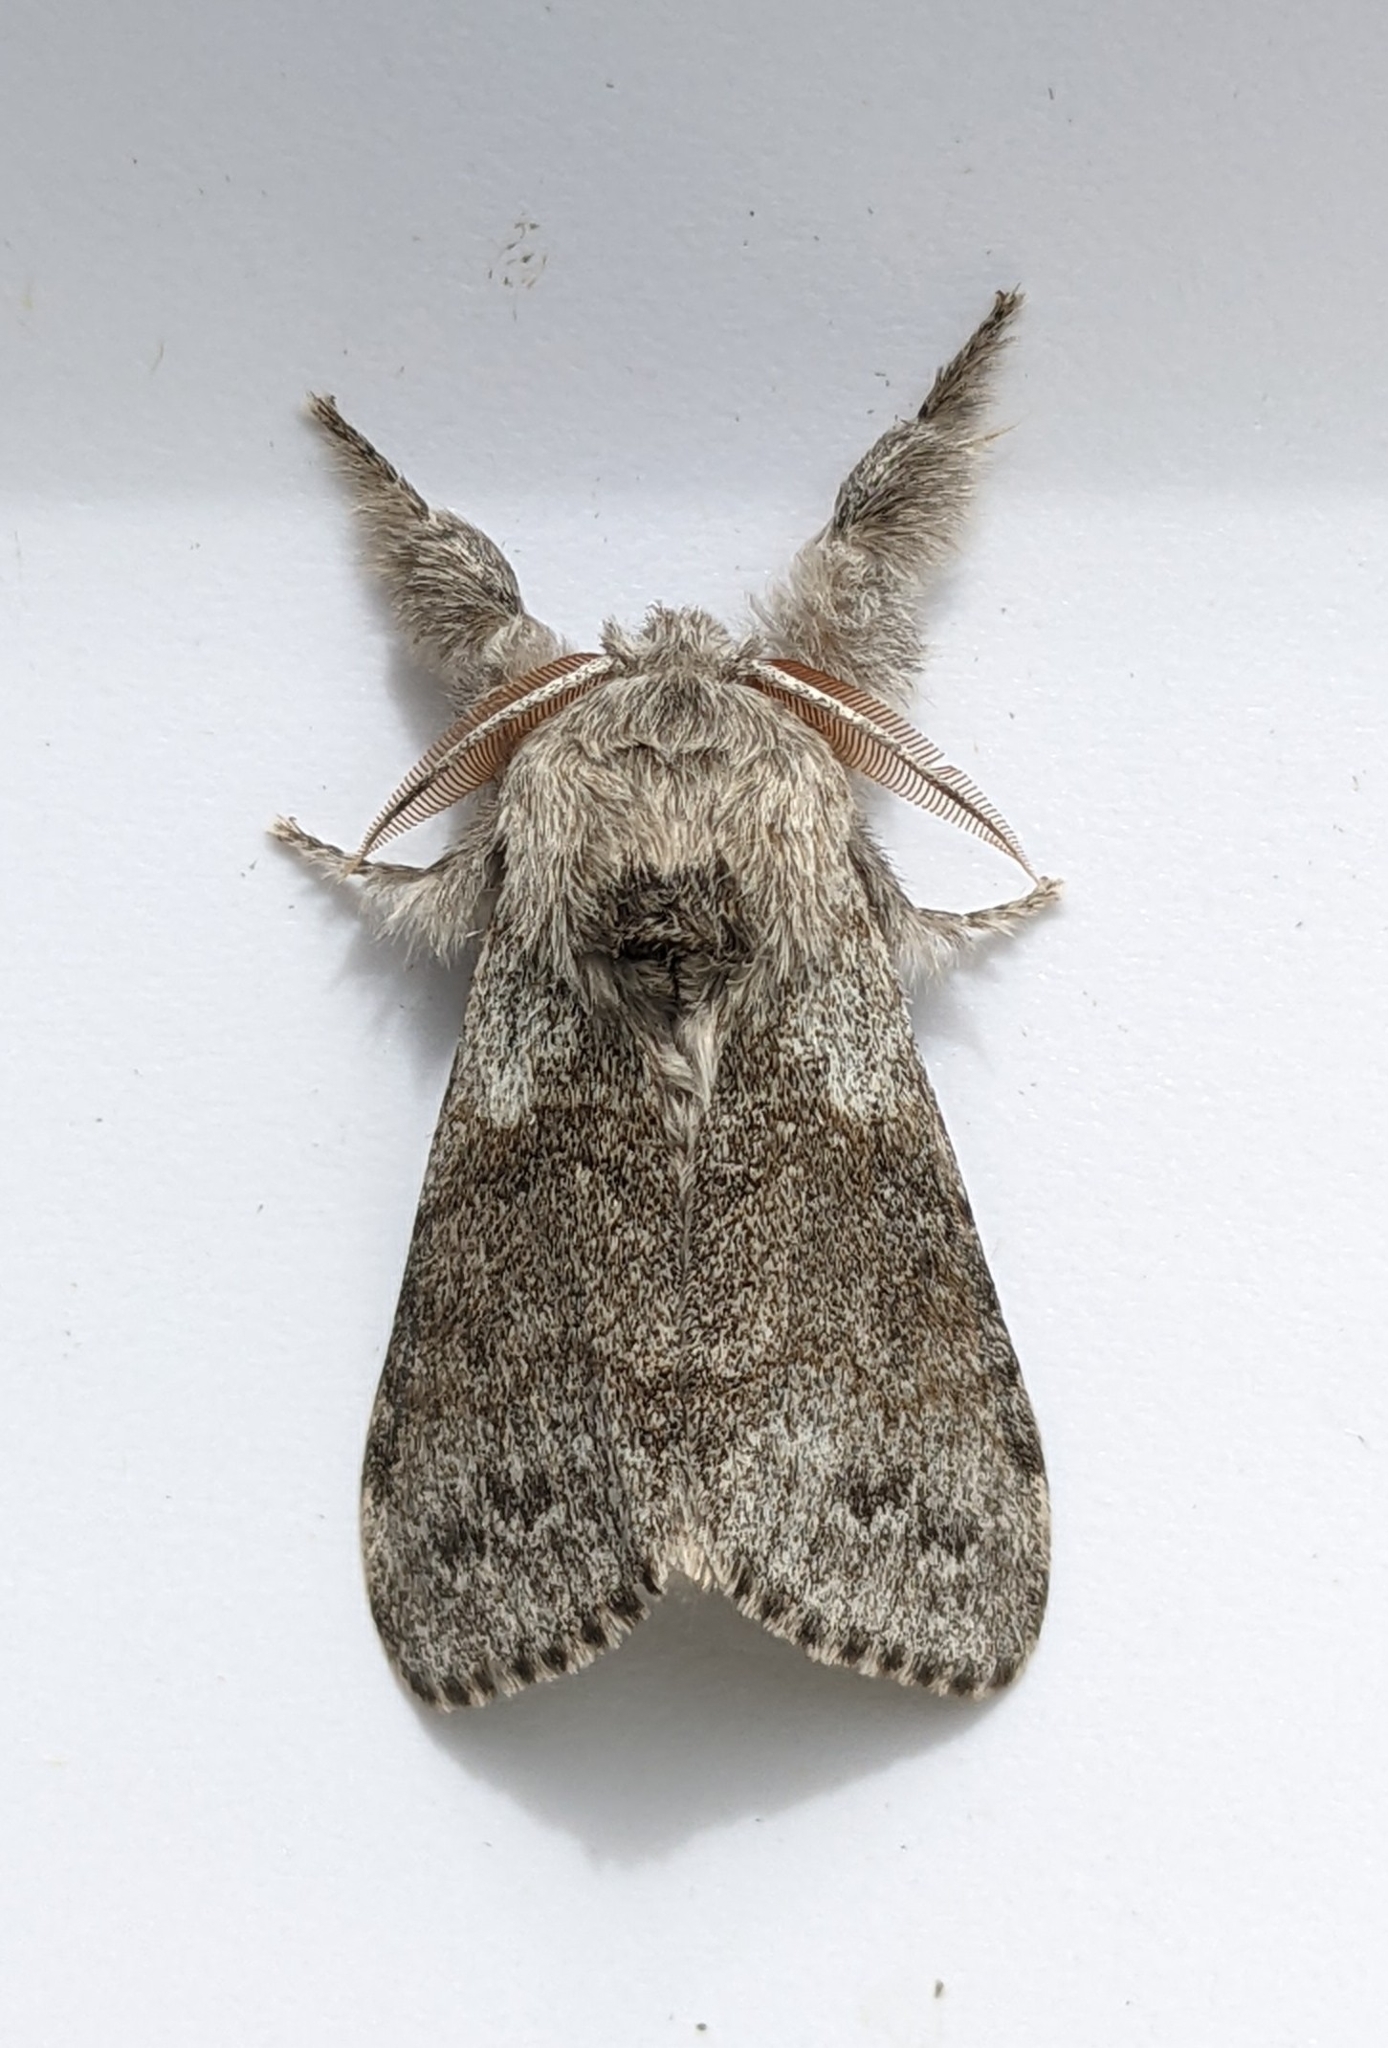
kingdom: Animalia
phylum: Arthropoda
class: Insecta
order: Lepidoptera
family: Erebidae
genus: Calliteara
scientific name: Calliteara pudibunda
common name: Pale tussock
